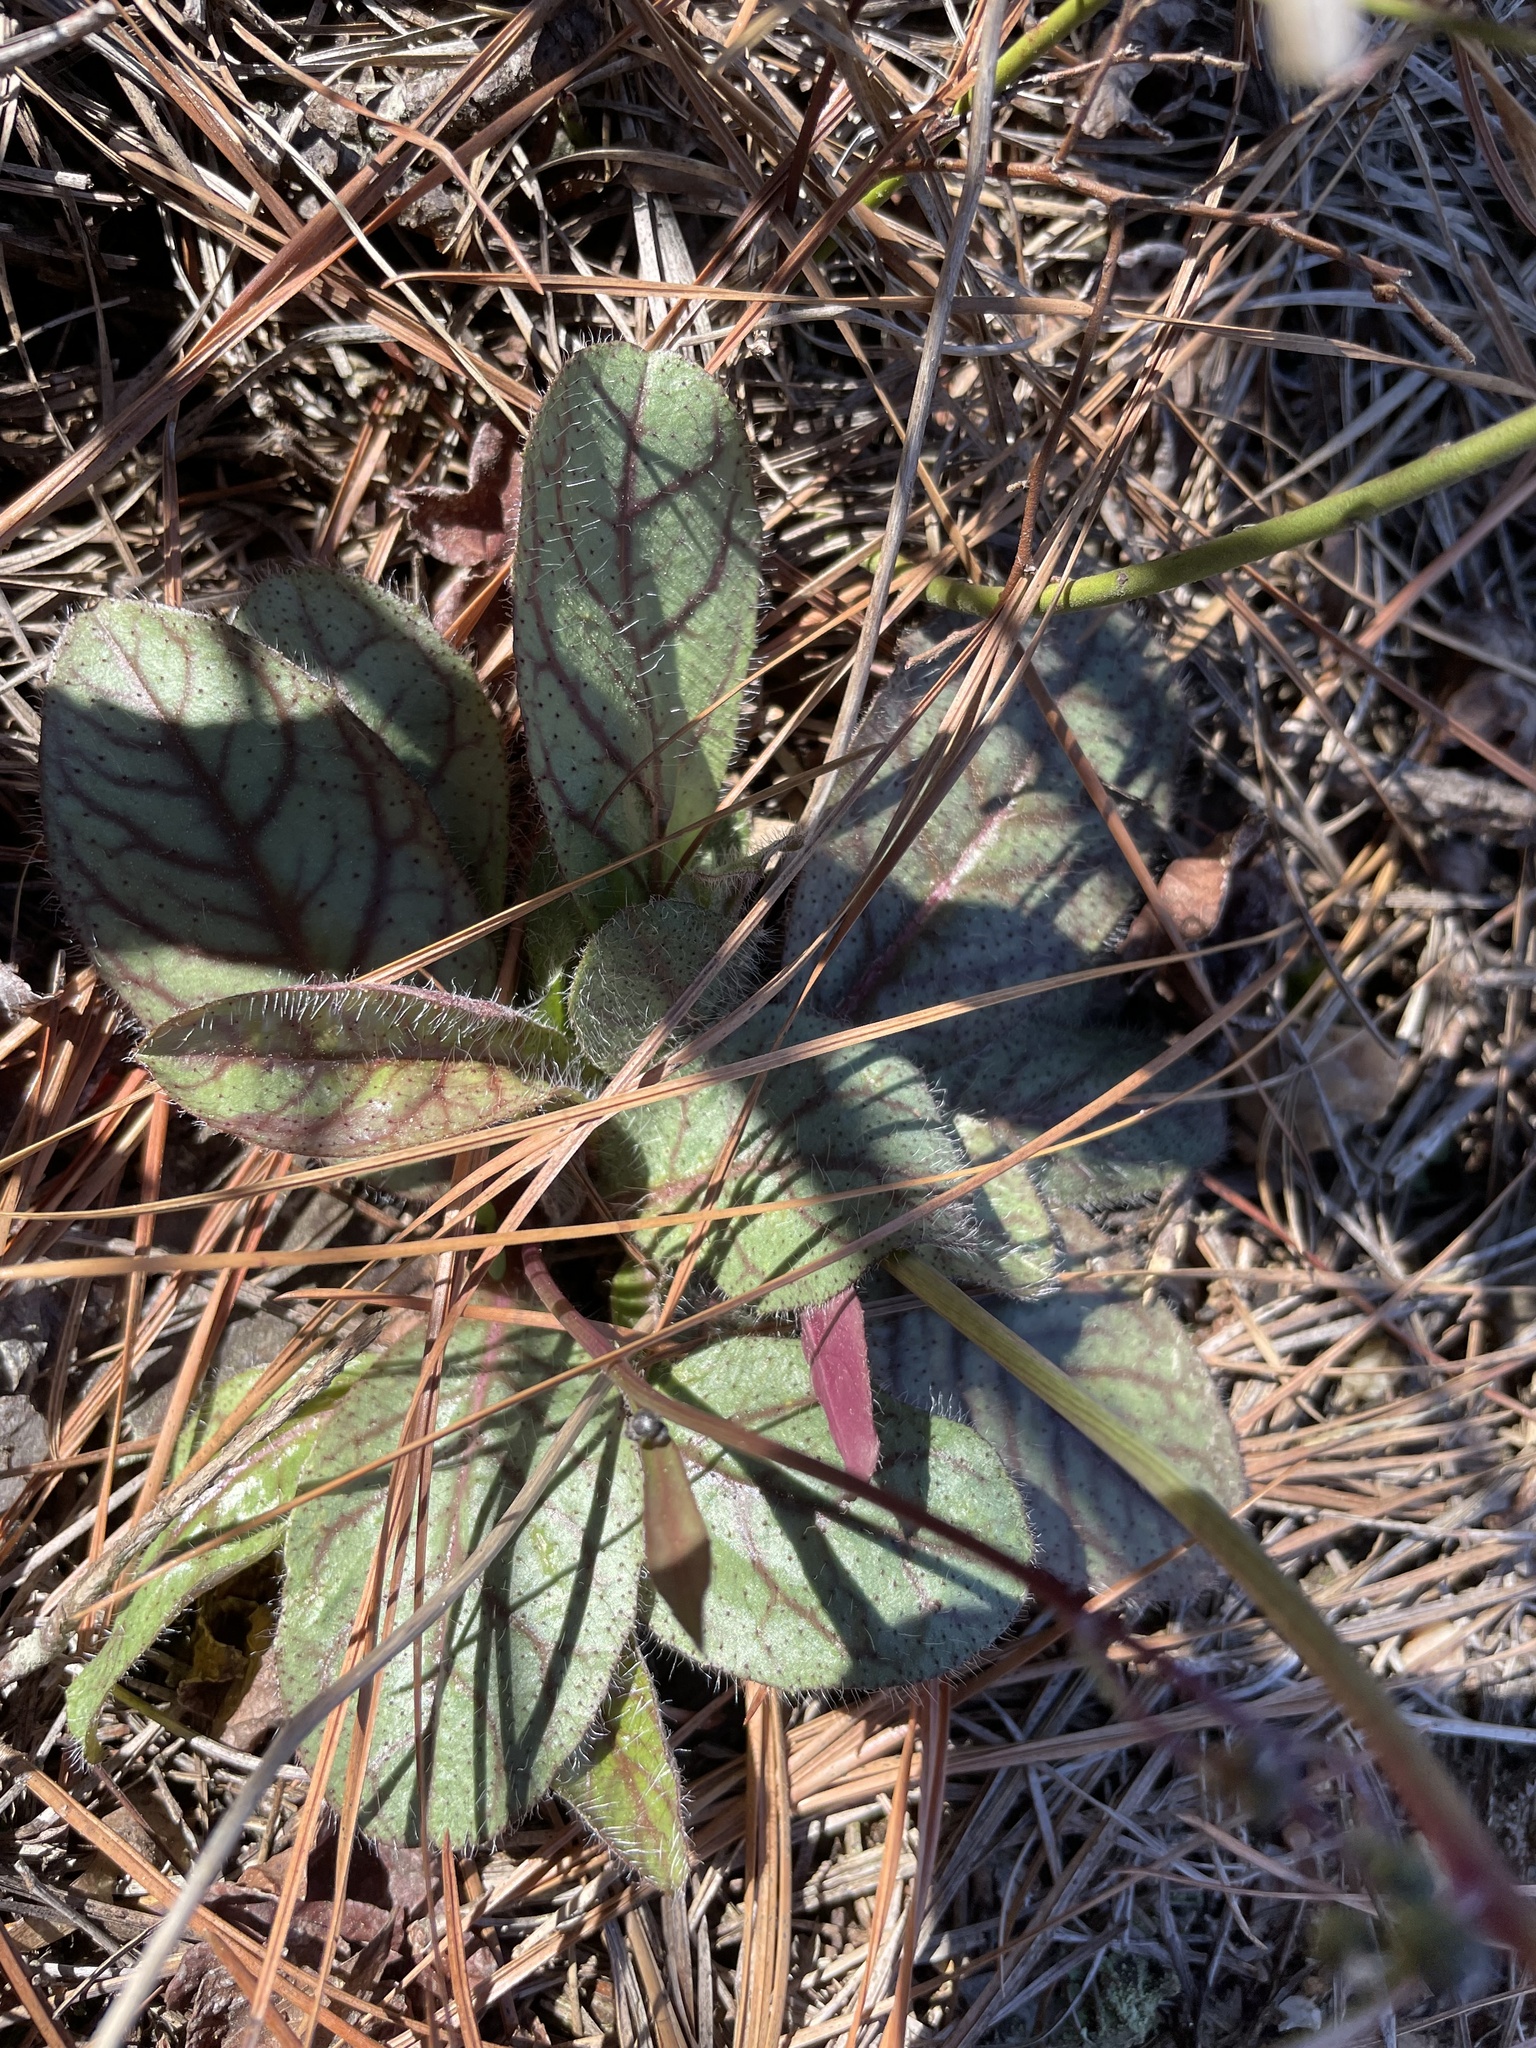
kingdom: Plantae
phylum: Tracheophyta
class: Magnoliopsida
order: Asterales
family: Asteraceae
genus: Hieracium
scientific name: Hieracium venosum
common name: Rattlesnake hawkweed
